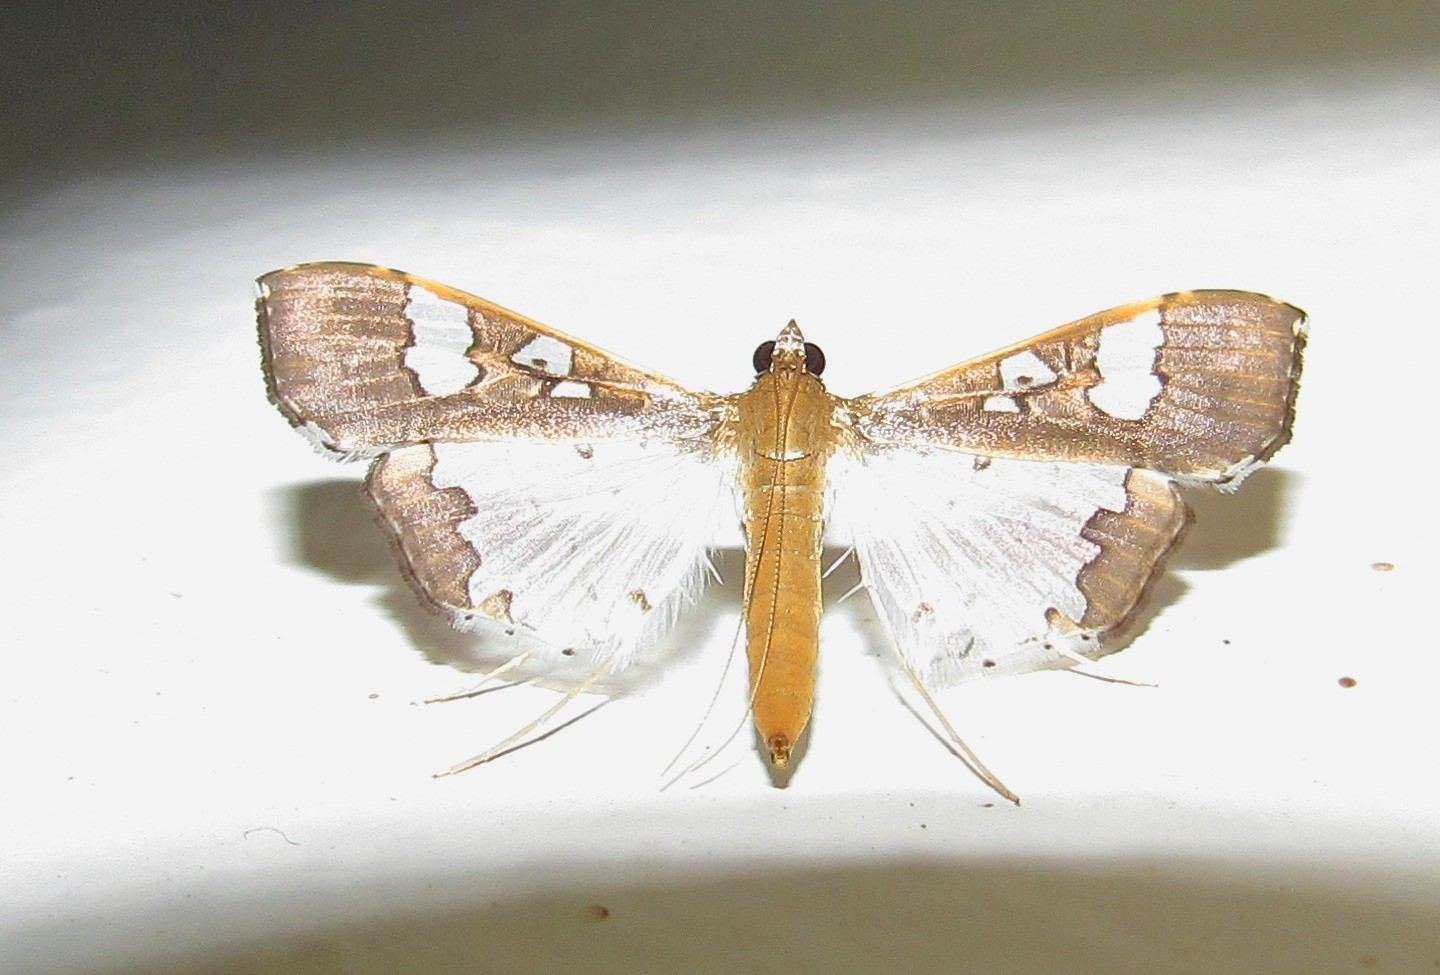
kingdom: Animalia
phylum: Arthropoda
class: Insecta
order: Lepidoptera
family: Crambidae
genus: Maruca
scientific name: Maruca vitrata
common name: Maruca pod borer
